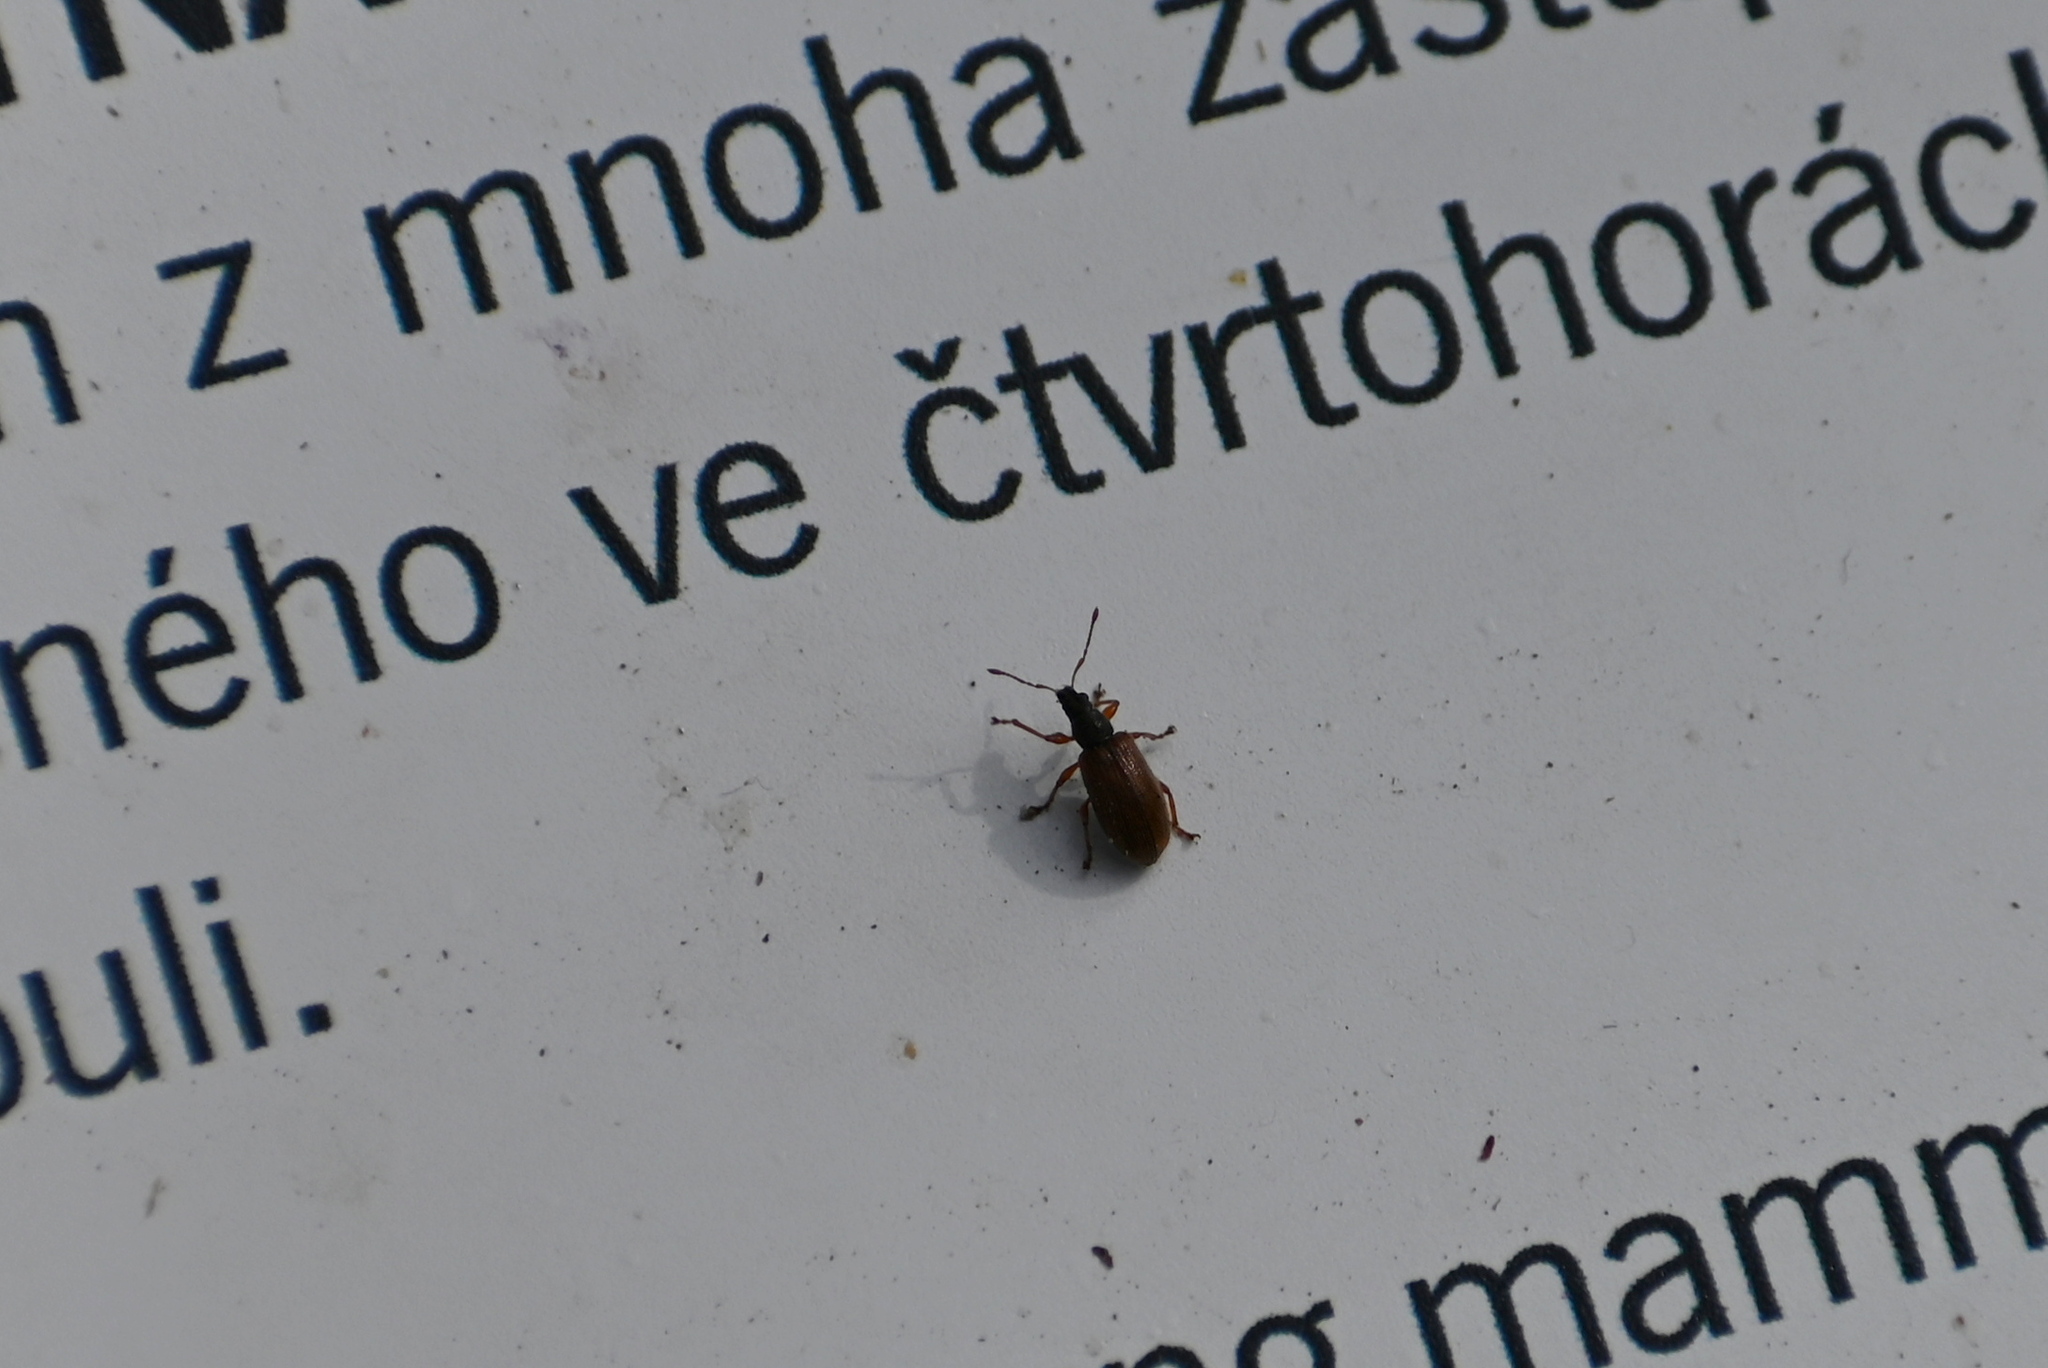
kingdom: Animalia
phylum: Arthropoda
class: Insecta
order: Coleoptera
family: Curculionidae
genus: Phyllobius
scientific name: Phyllobius oblongus
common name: Brown leaf weevil
